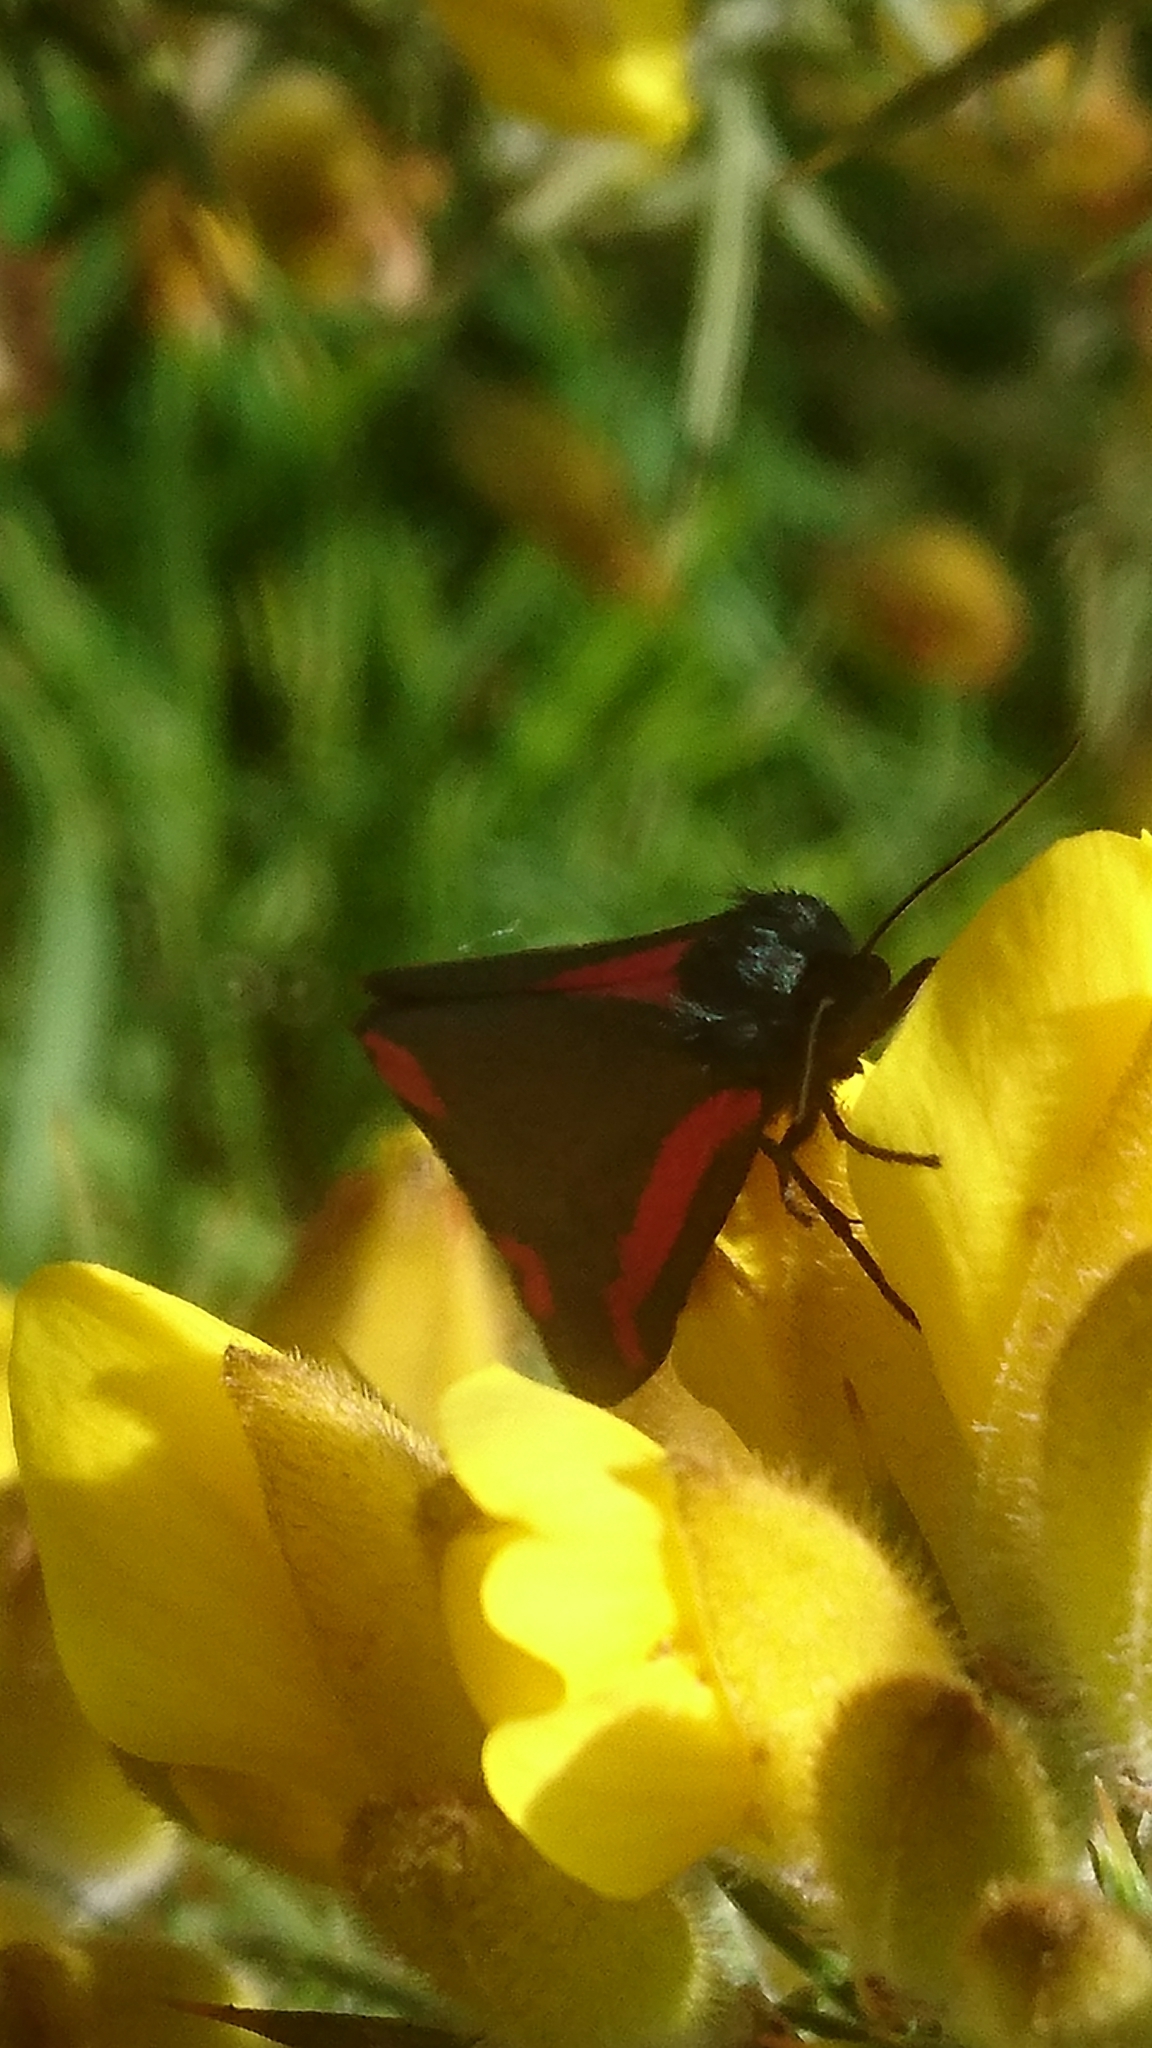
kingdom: Animalia
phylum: Arthropoda
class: Insecta
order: Lepidoptera
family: Erebidae
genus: Tyria
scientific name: Tyria jacobaeae
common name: Cinnabar
